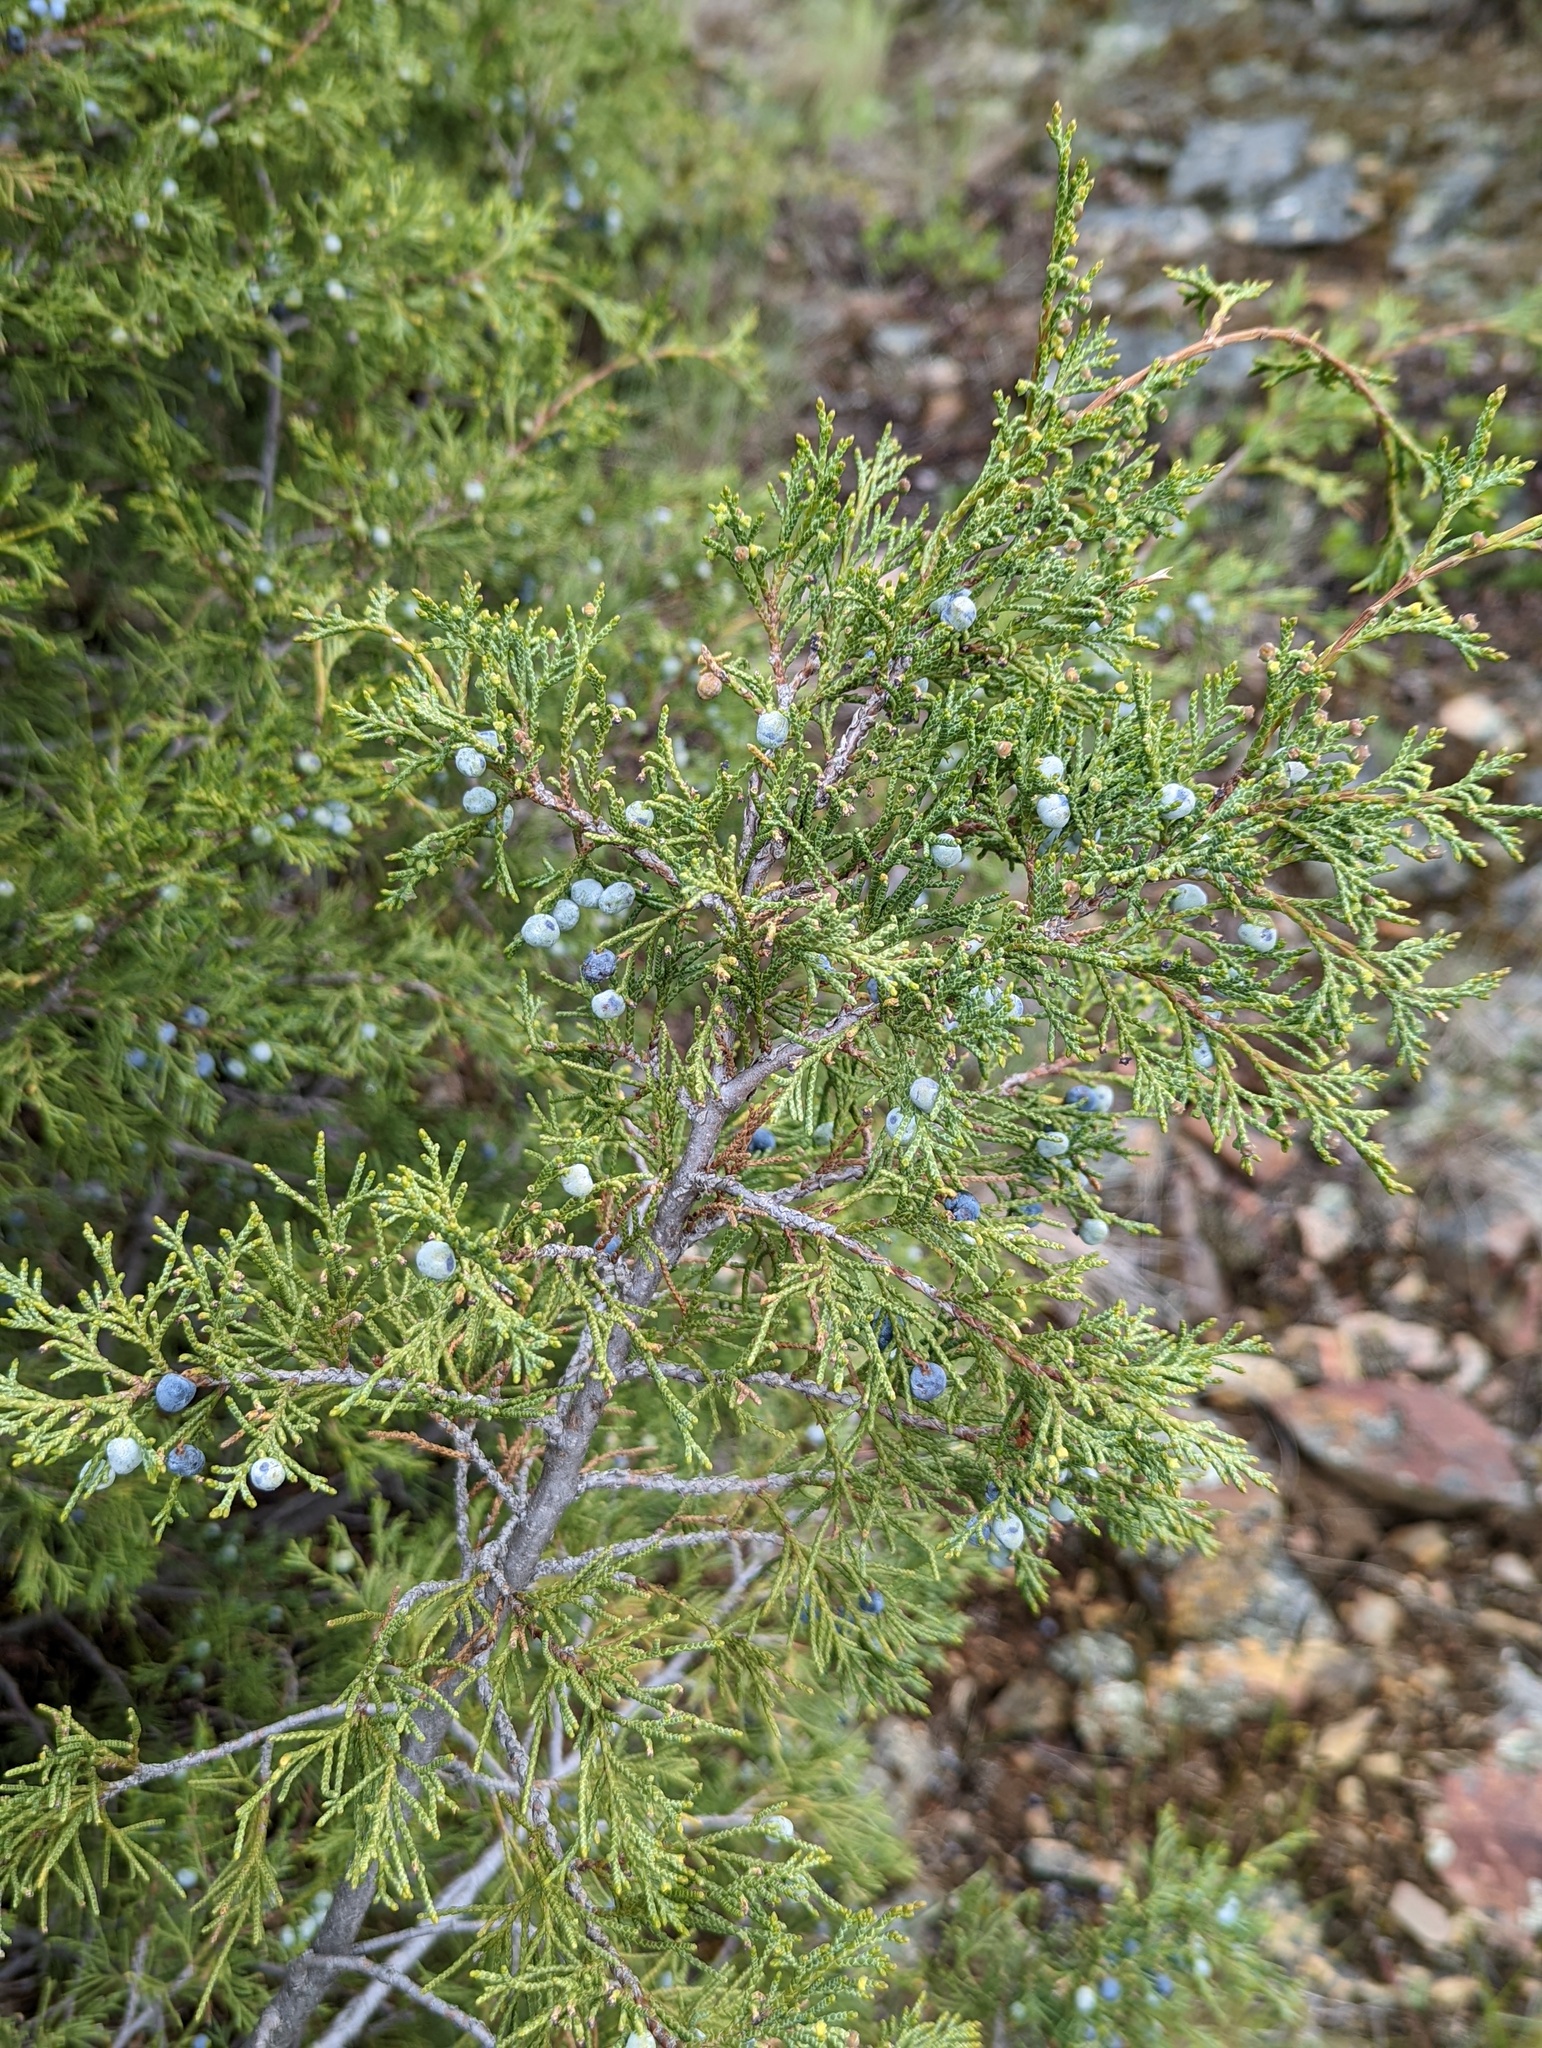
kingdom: Plantae
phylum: Tracheophyta
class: Pinopsida
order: Pinales
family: Cupressaceae
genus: Juniperus
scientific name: Juniperus scopulorum
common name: Rocky mountain juniper
